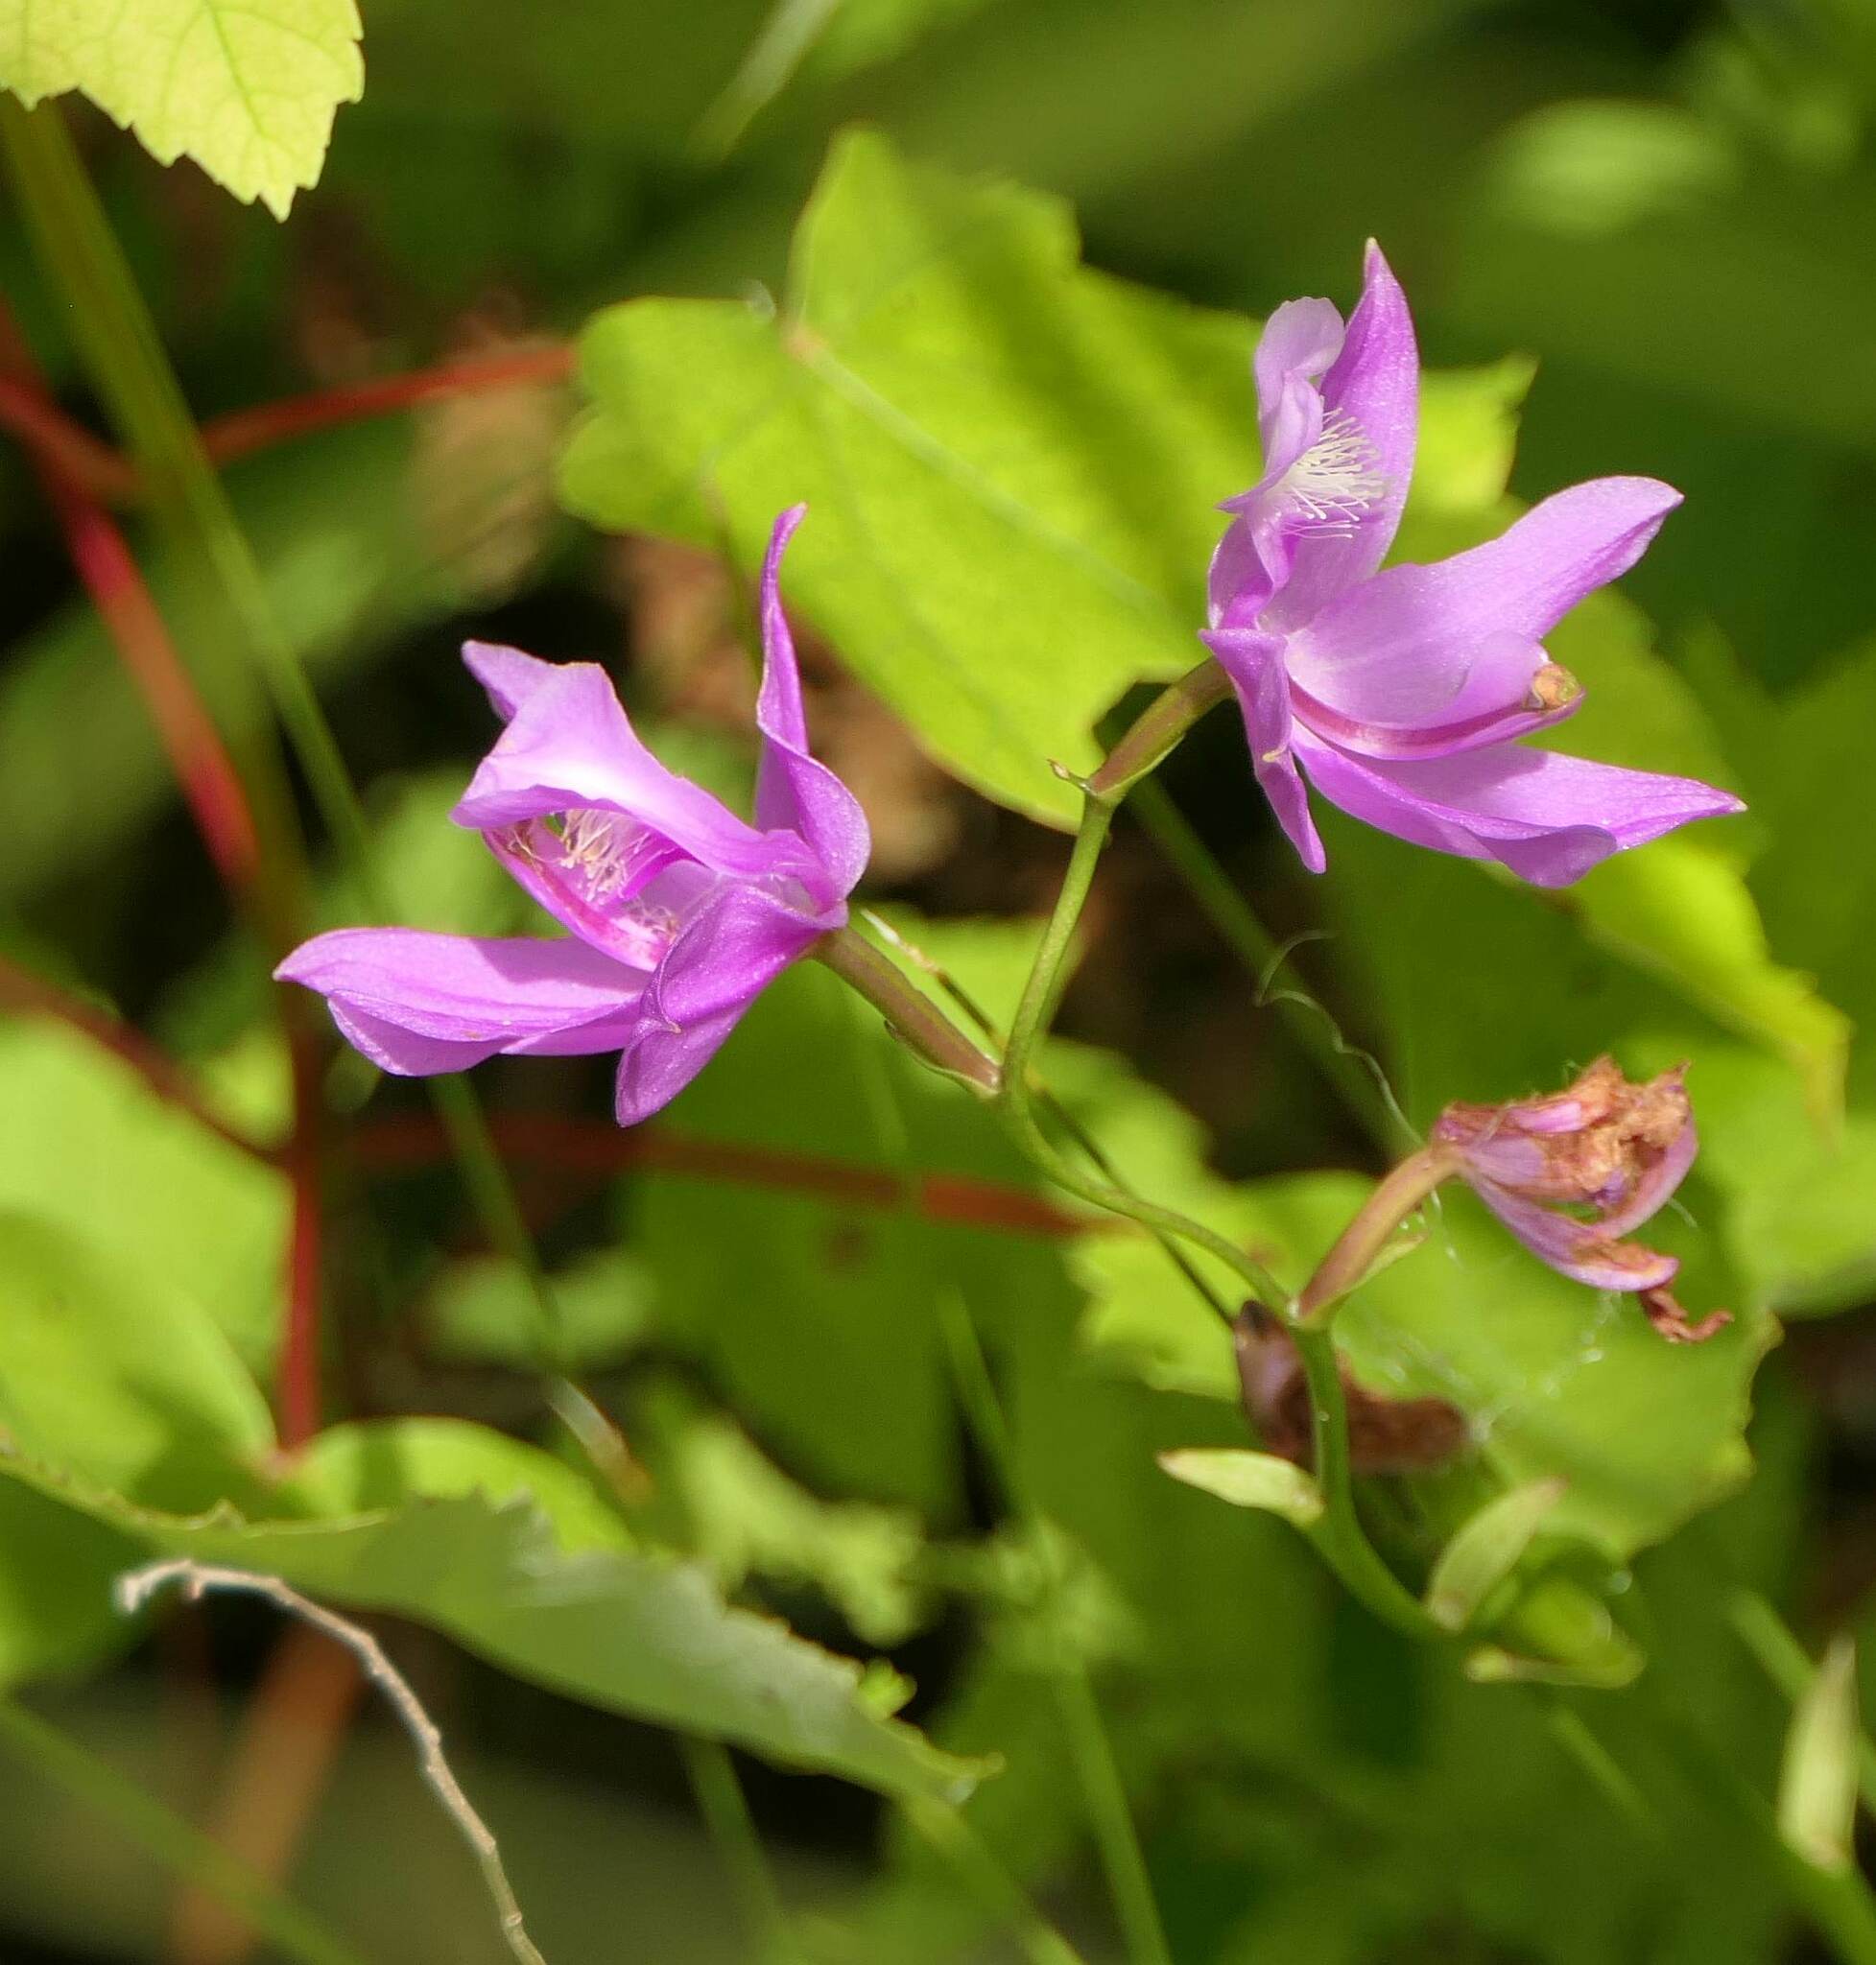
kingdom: Plantae
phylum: Tracheophyta
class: Liliopsida
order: Asparagales
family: Orchidaceae
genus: Calopogon
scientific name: Calopogon tuberosus
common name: Grass-pink
